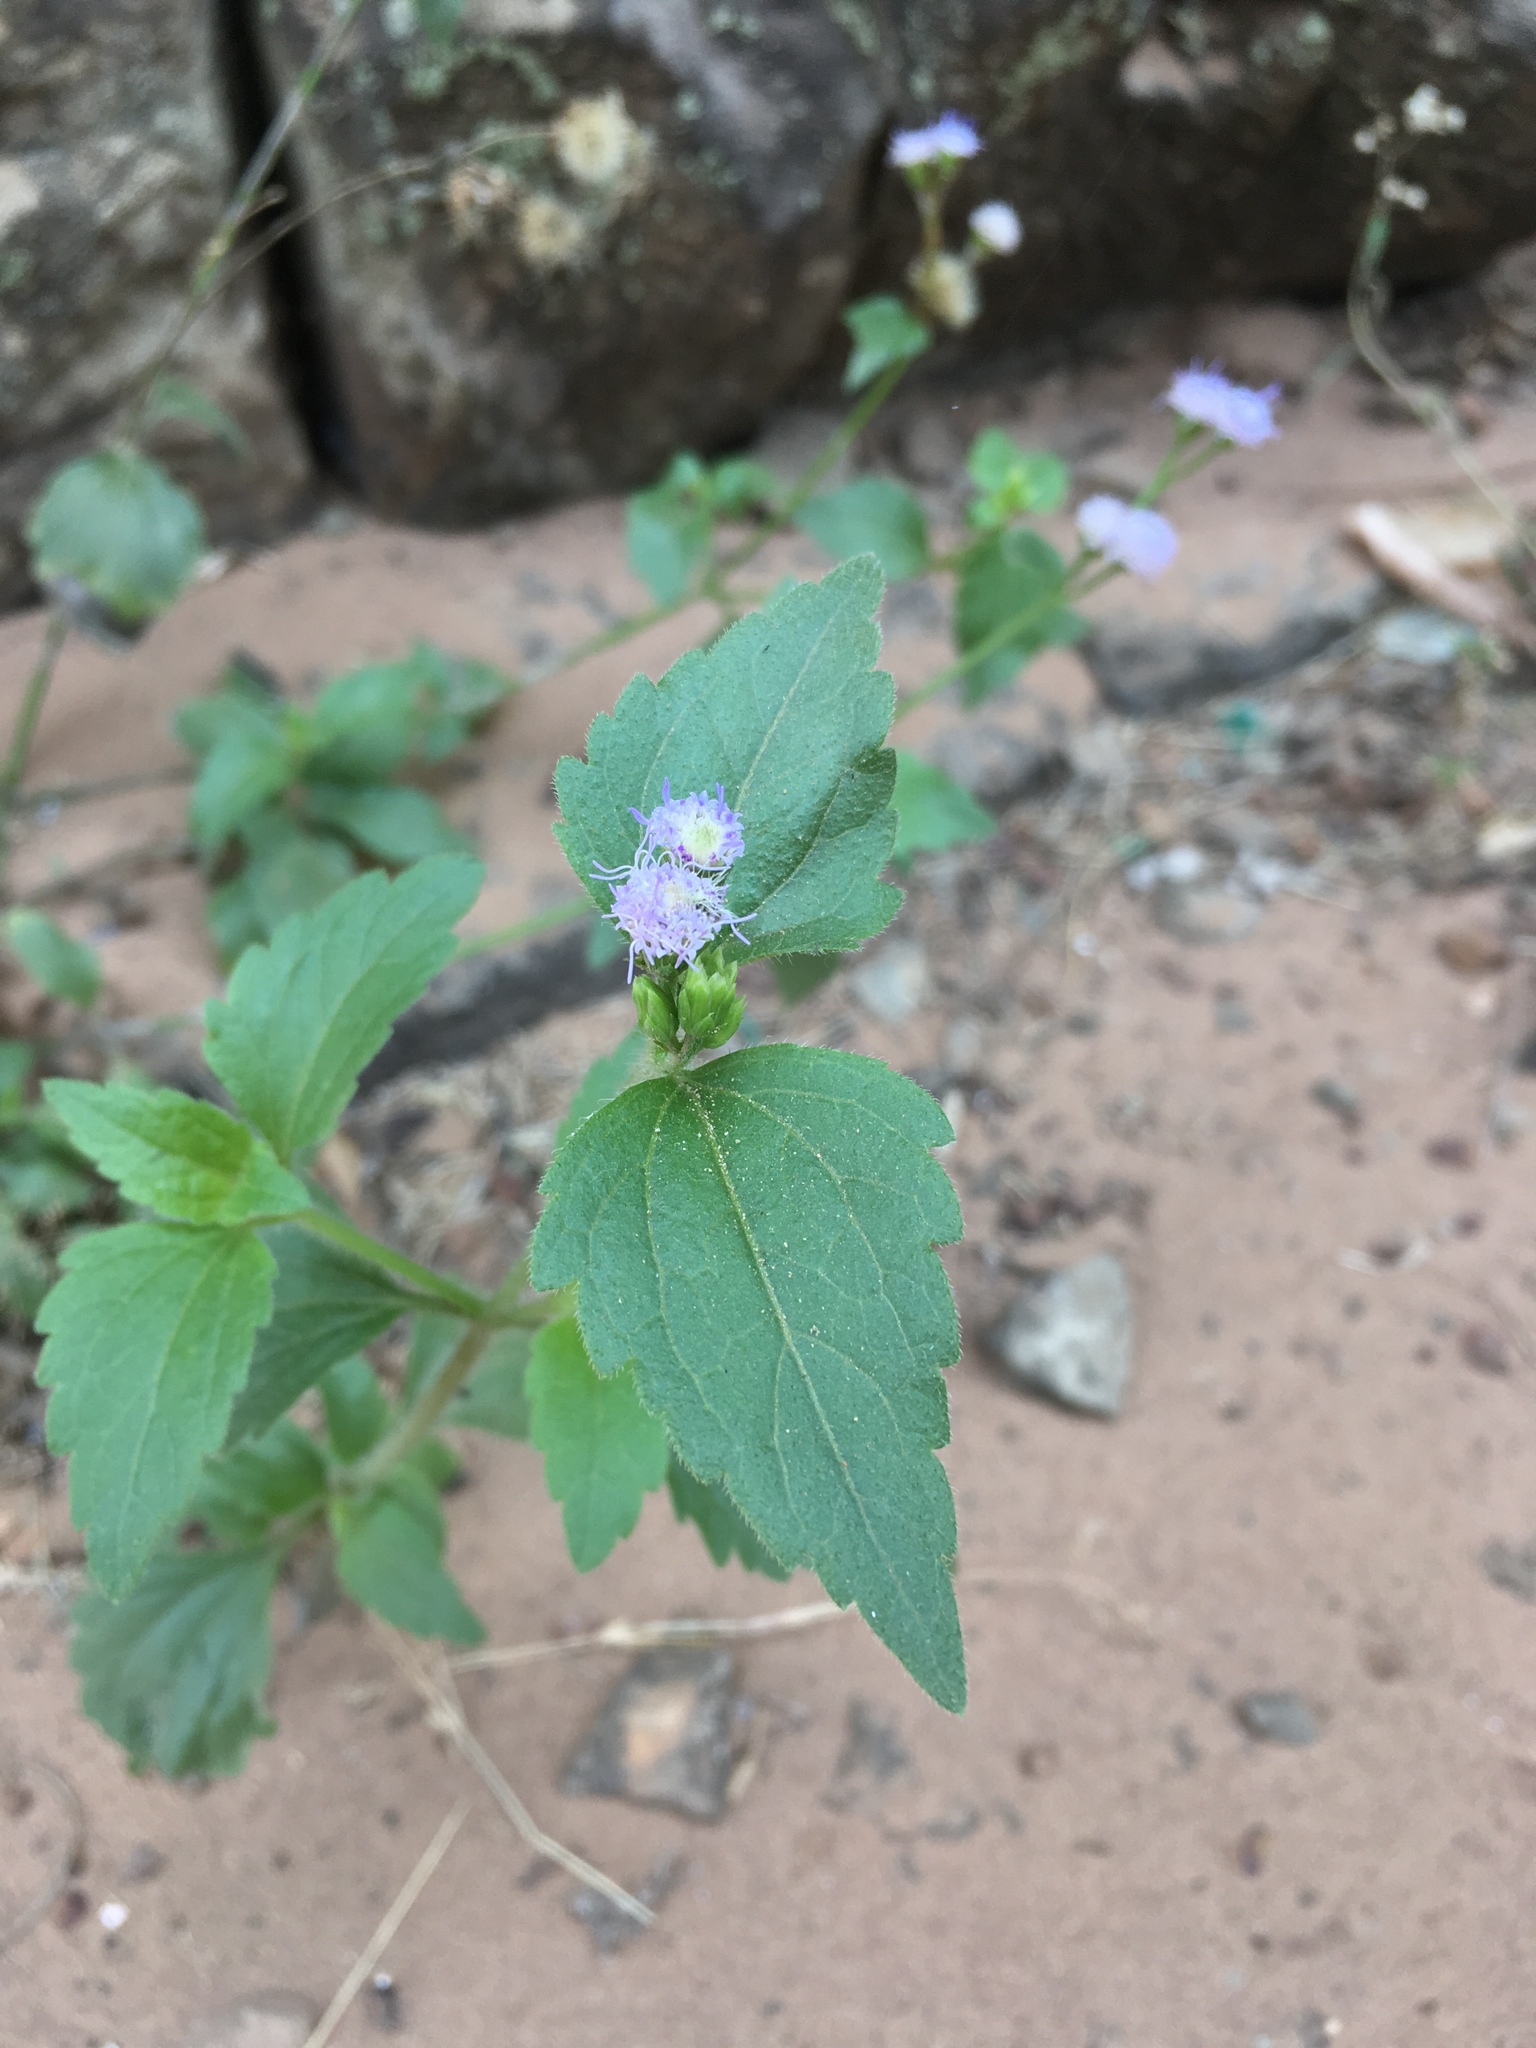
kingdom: Plantae
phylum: Tracheophyta
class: Magnoliopsida
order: Asterales
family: Asteraceae
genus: Praxelis
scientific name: Praxelis clematidea
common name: Praxelis
